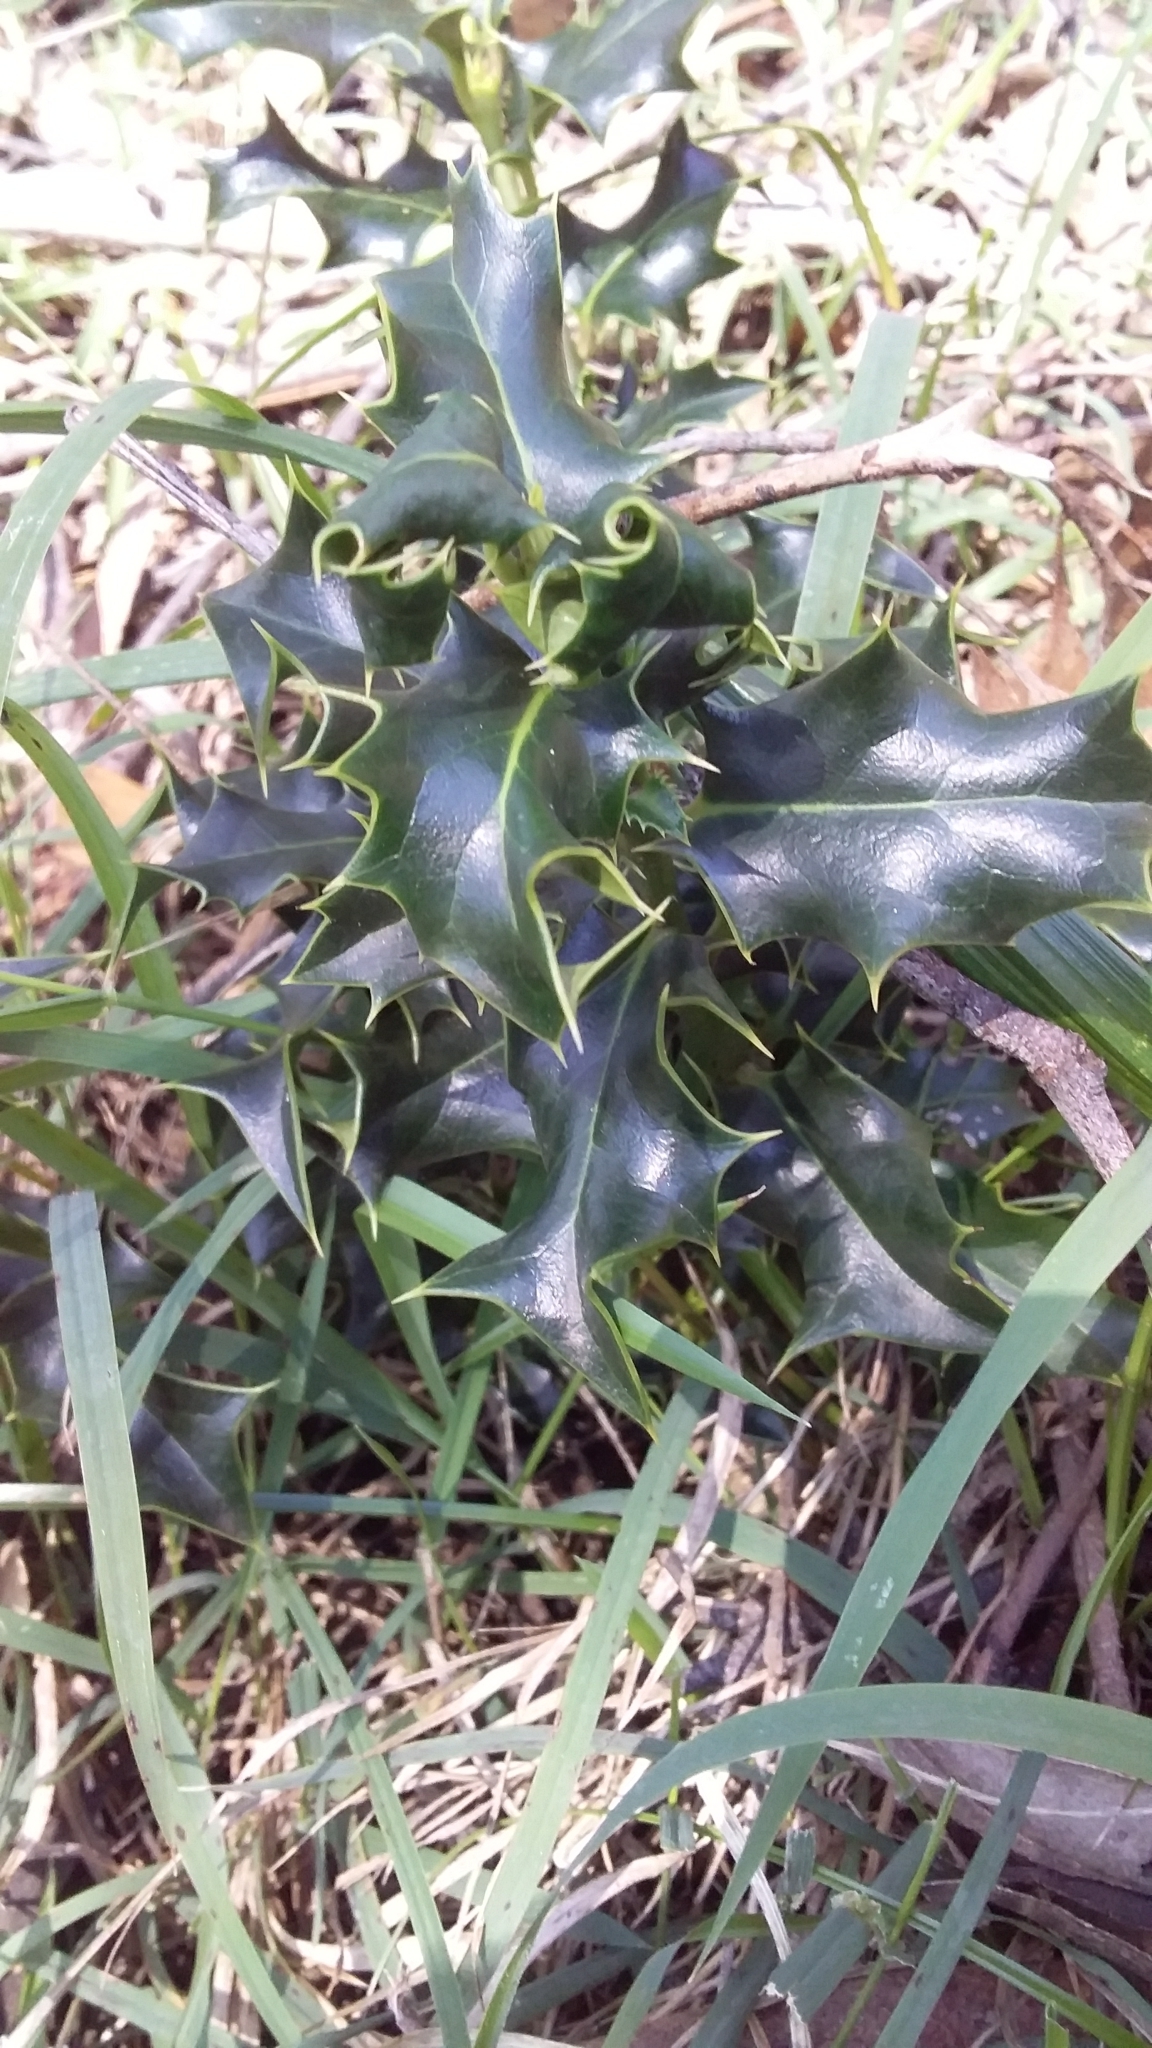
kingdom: Plantae
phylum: Tracheophyta
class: Magnoliopsida
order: Aquifoliales
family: Aquifoliaceae
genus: Ilex
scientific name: Ilex aquifolium
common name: English holly
